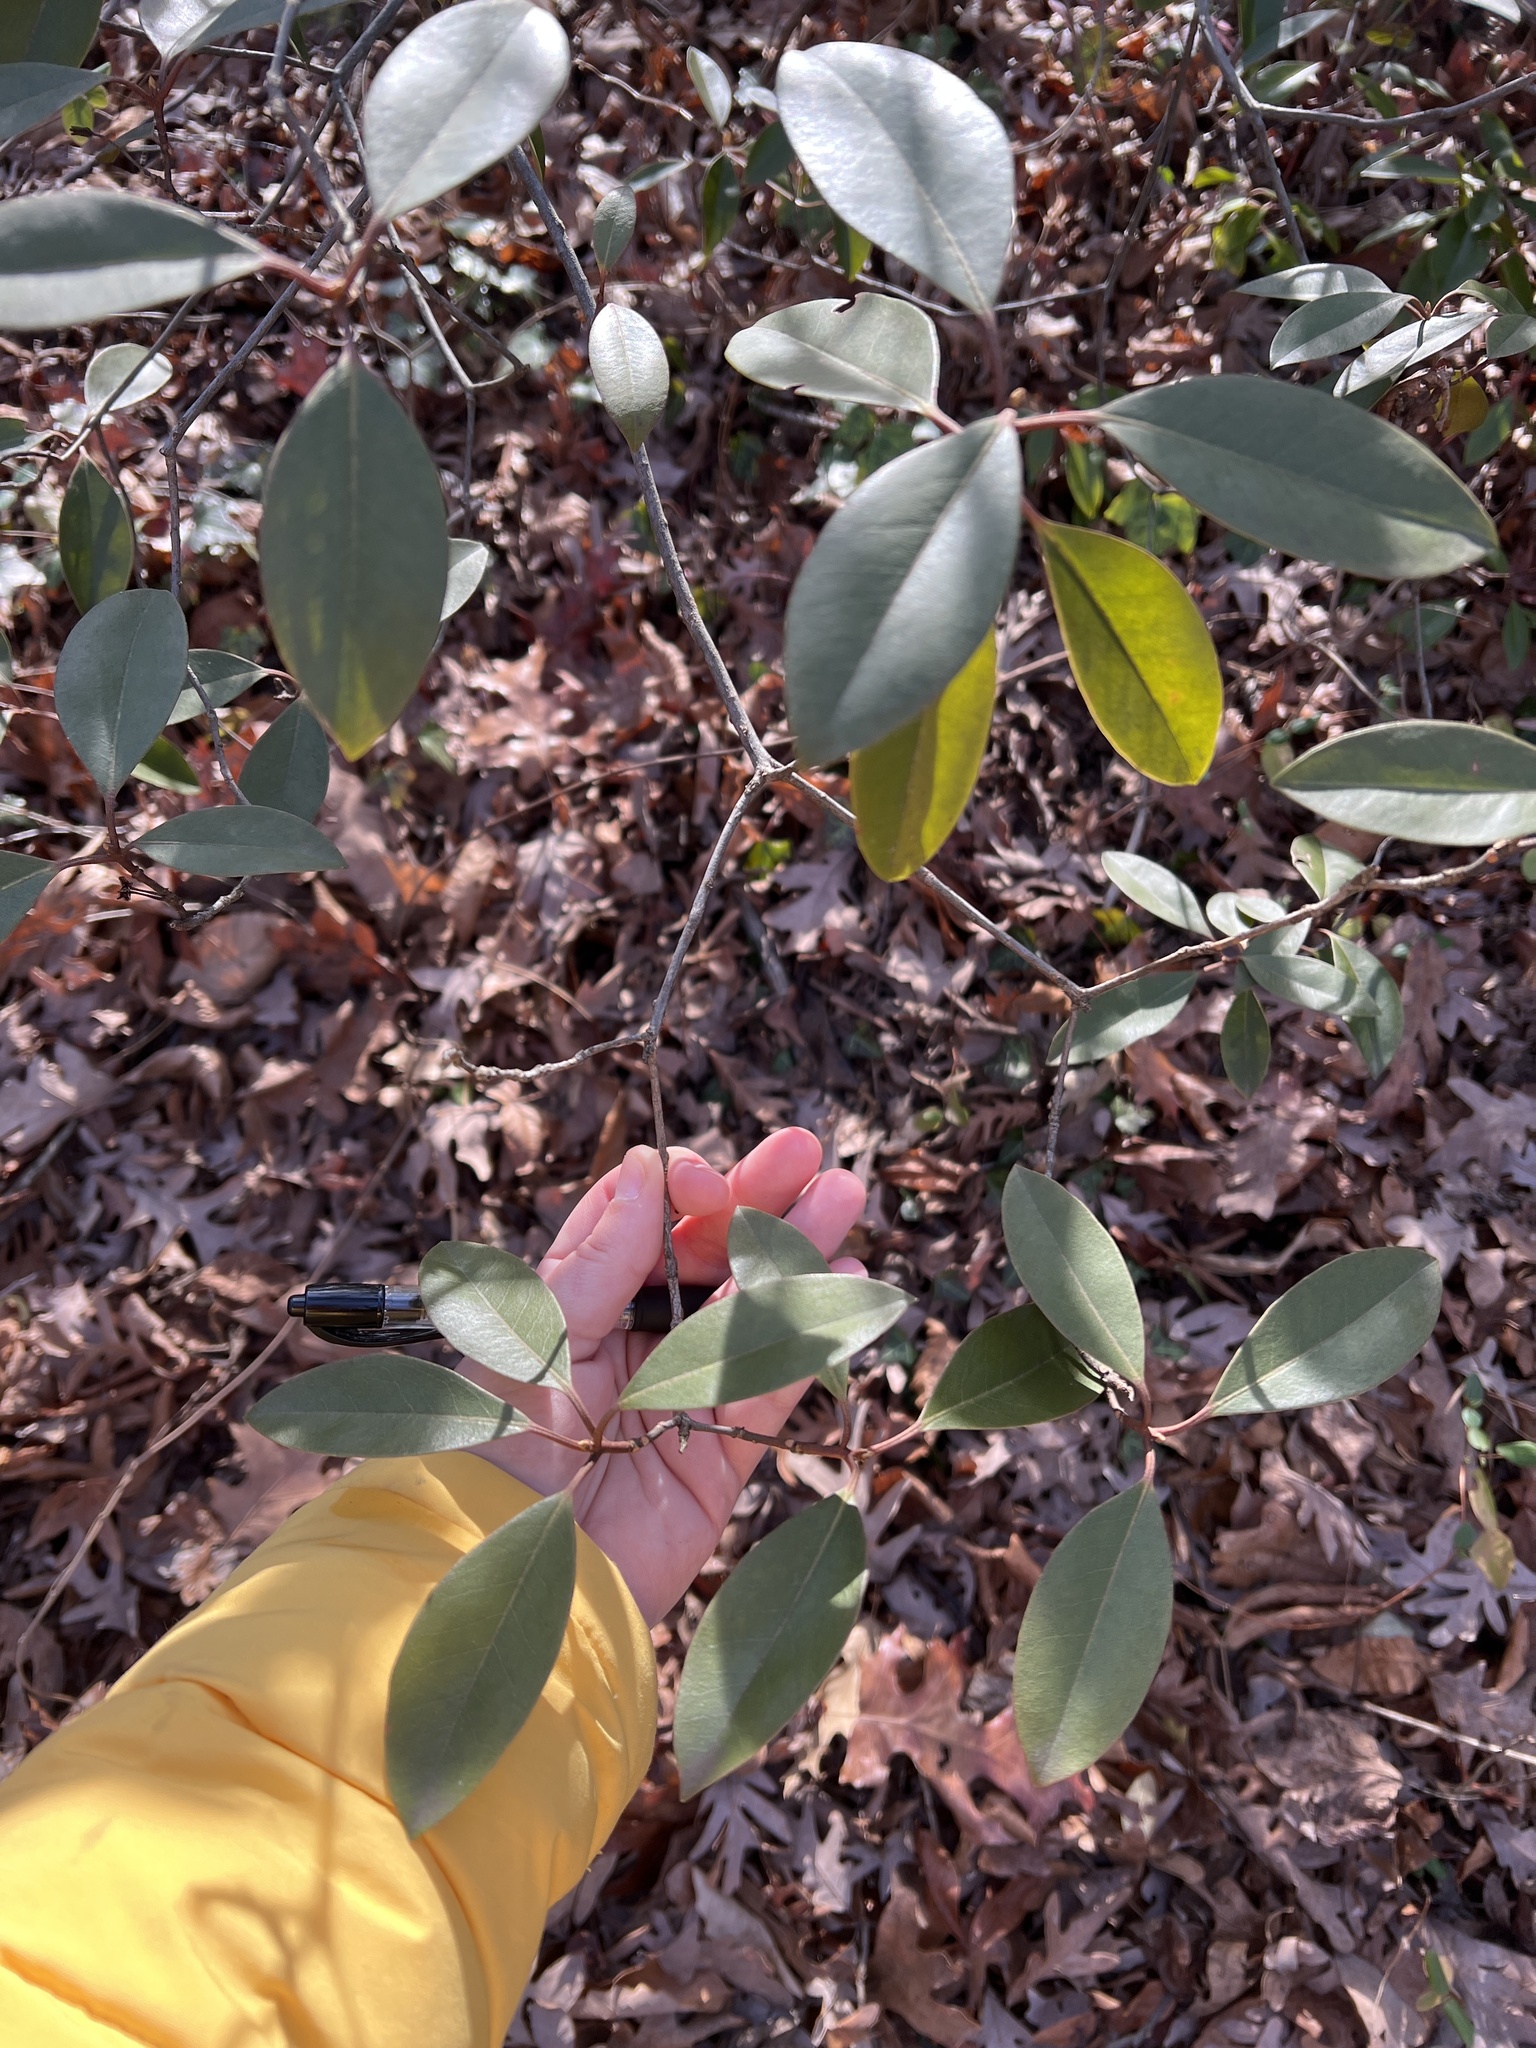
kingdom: Plantae
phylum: Tracheophyta
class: Magnoliopsida
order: Ericales
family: Ericaceae
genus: Kalmia
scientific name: Kalmia latifolia
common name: Mountain-laurel
